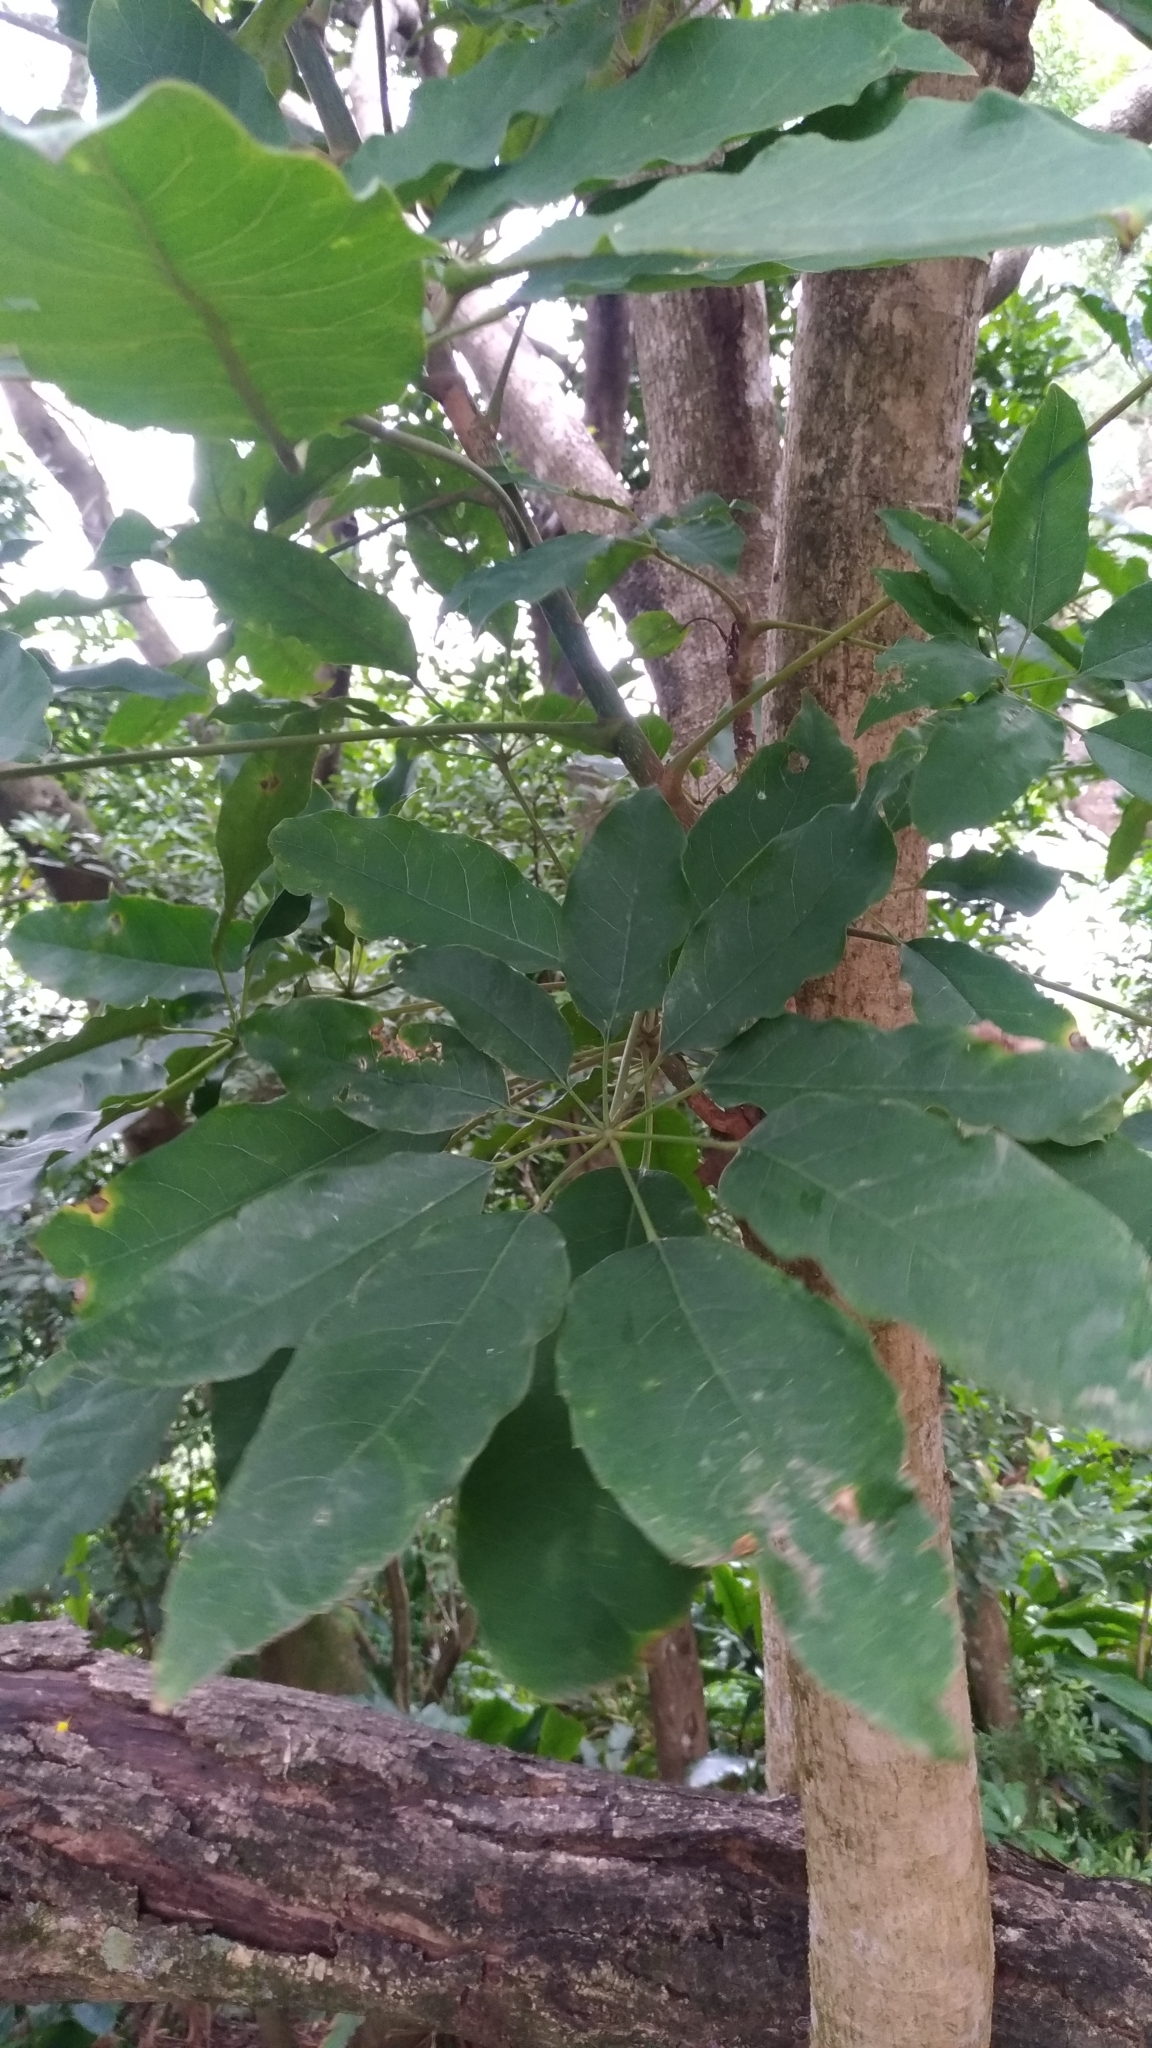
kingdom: Plantae
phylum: Tracheophyta
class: Magnoliopsida
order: Apiales
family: Araliaceae
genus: Heptapleurum
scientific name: Heptapleurum heptaphyllum
